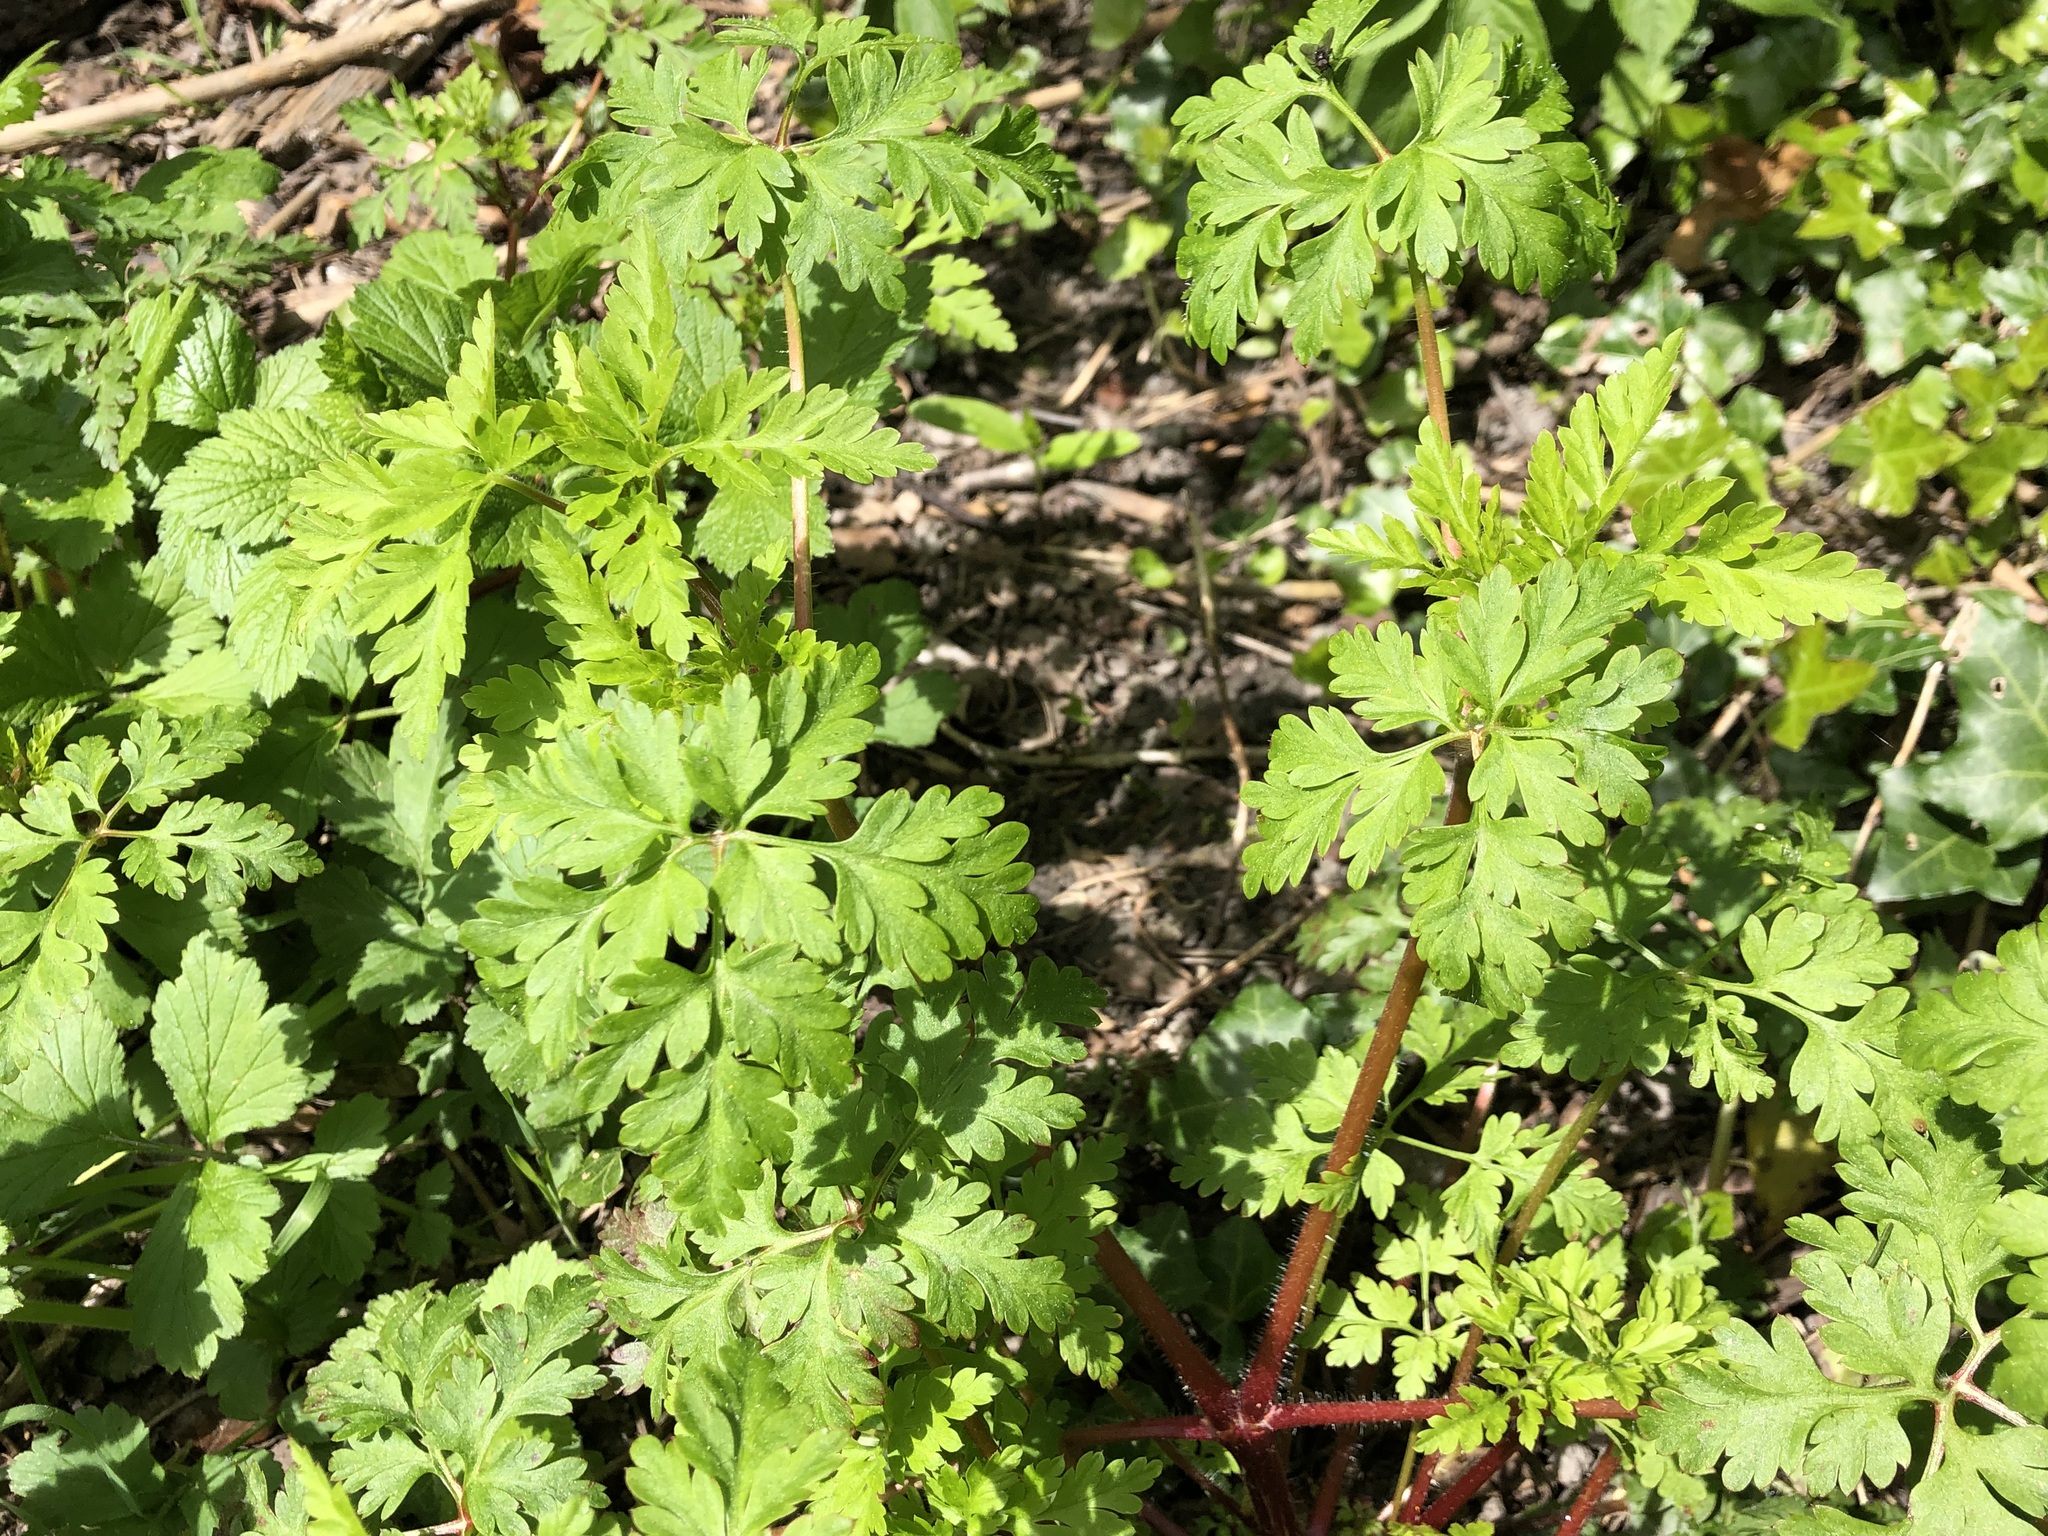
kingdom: Plantae
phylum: Tracheophyta
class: Magnoliopsida
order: Geraniales
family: Geraniaceae
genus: Geranium
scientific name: Geranium robertianum
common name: Herb-robert
